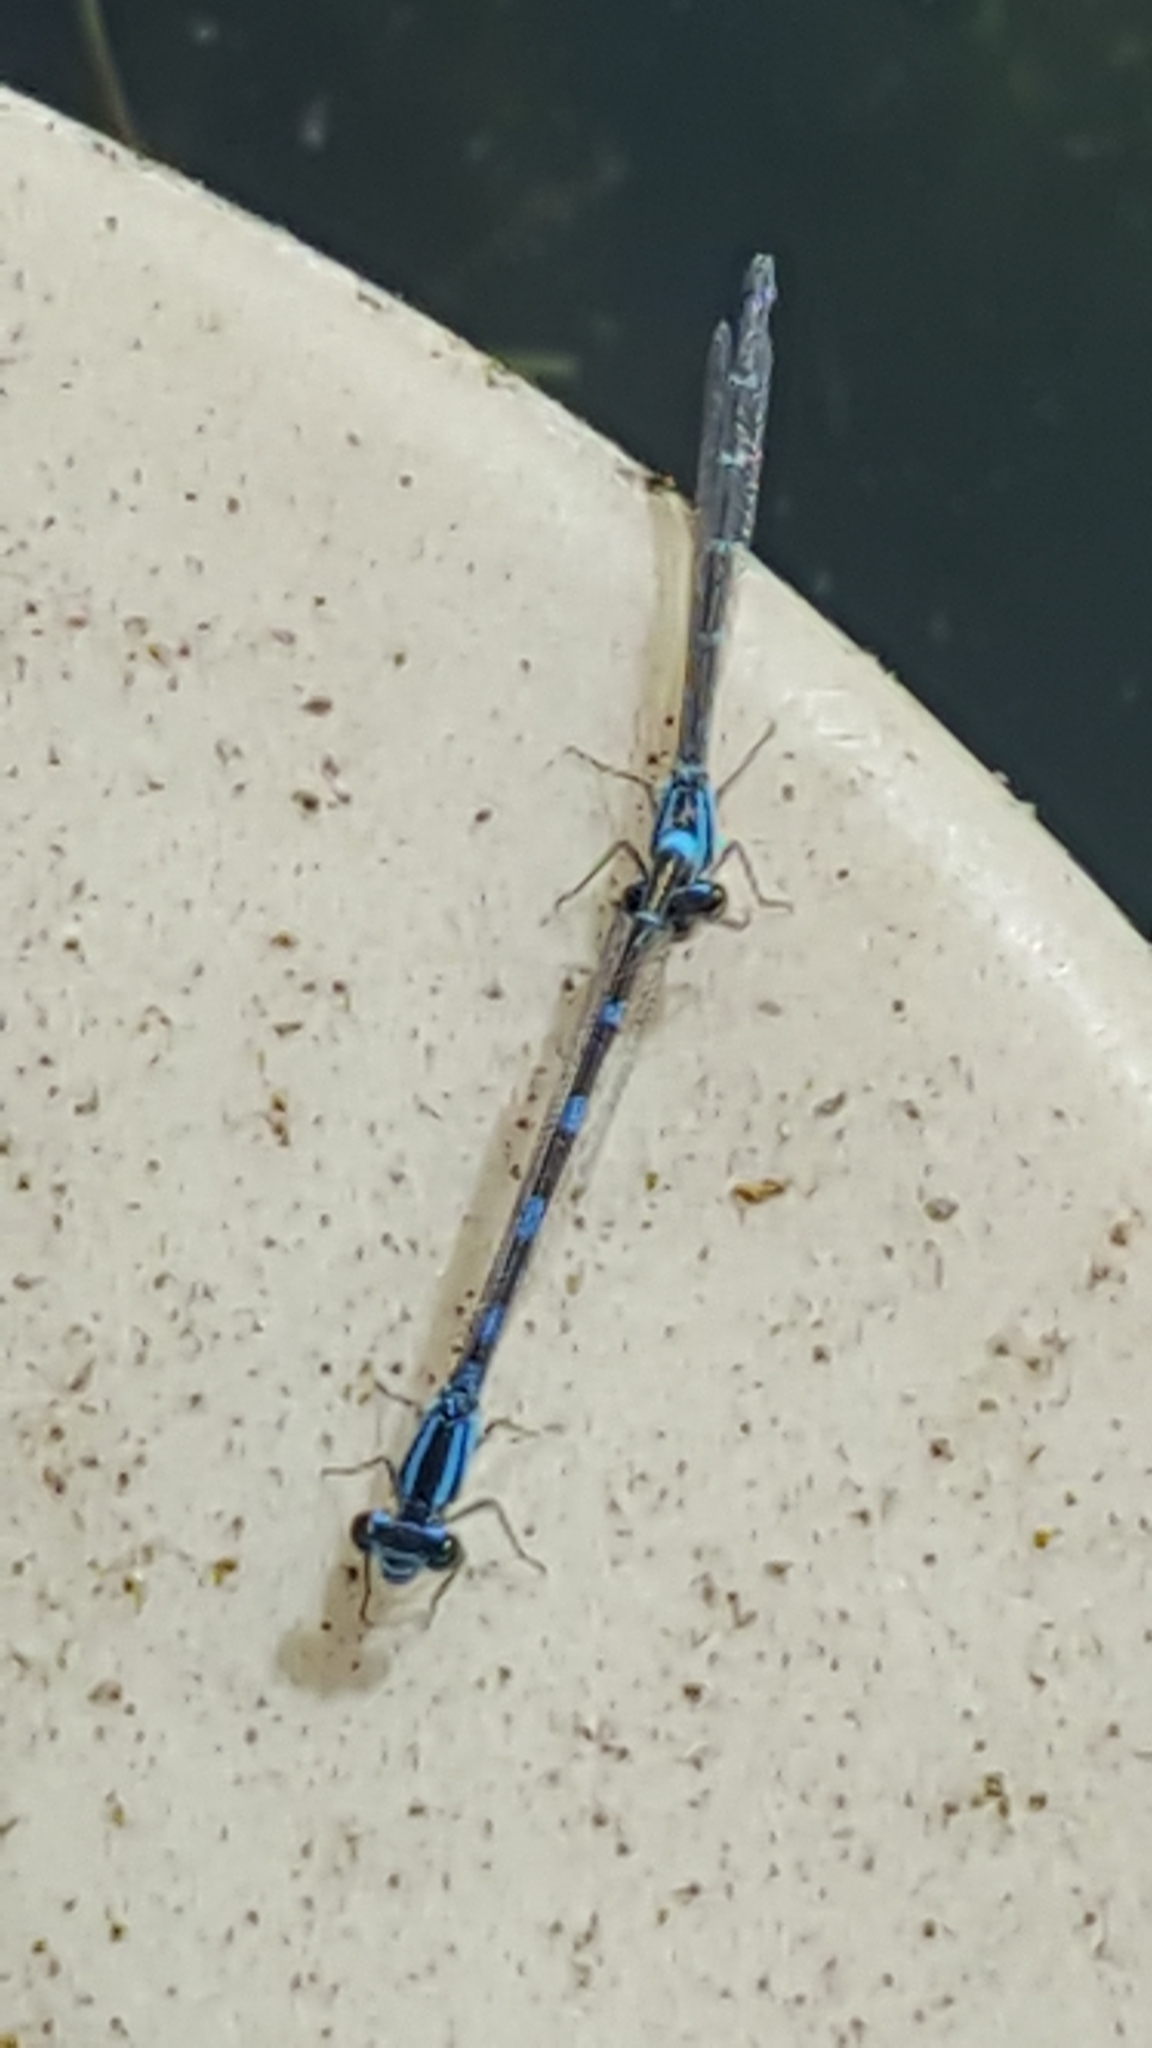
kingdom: Animalia
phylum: Arthropoda
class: Insecta
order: Odonata
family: Coenagrionidae
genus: Enallagma
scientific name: Enallagma carunculatum
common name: Tule bluet
